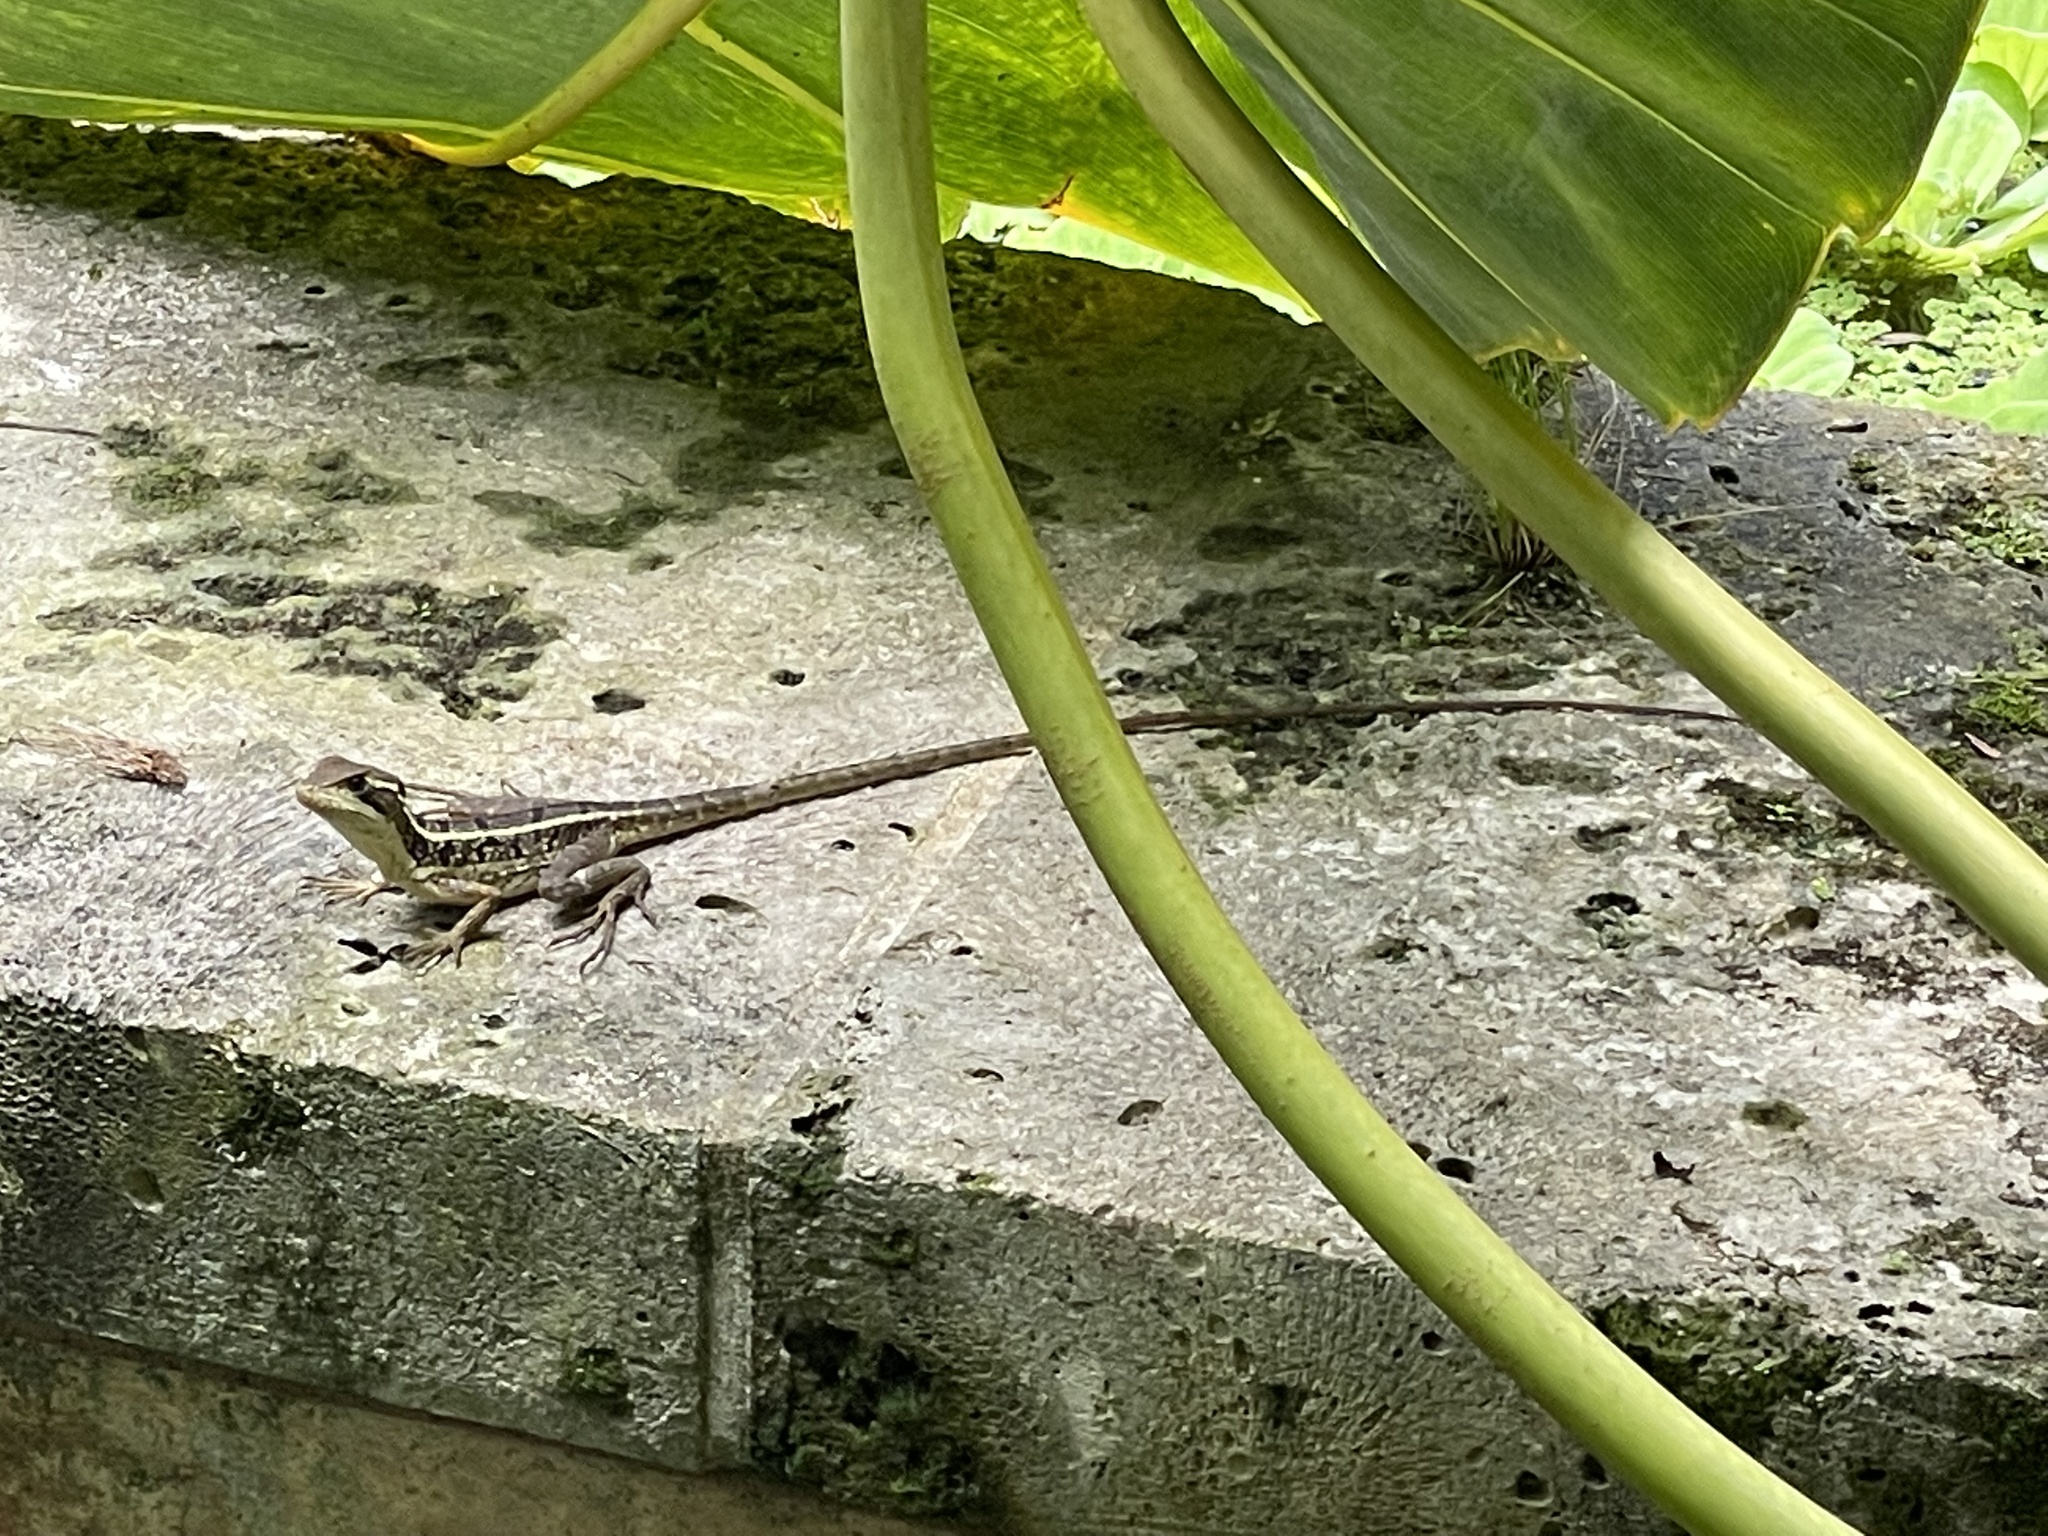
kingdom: Animalia
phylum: Chordata
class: Squamata
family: Corytophanidae
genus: Basiliscus
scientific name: Basiliscus vittatus
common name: Brown basilisk
